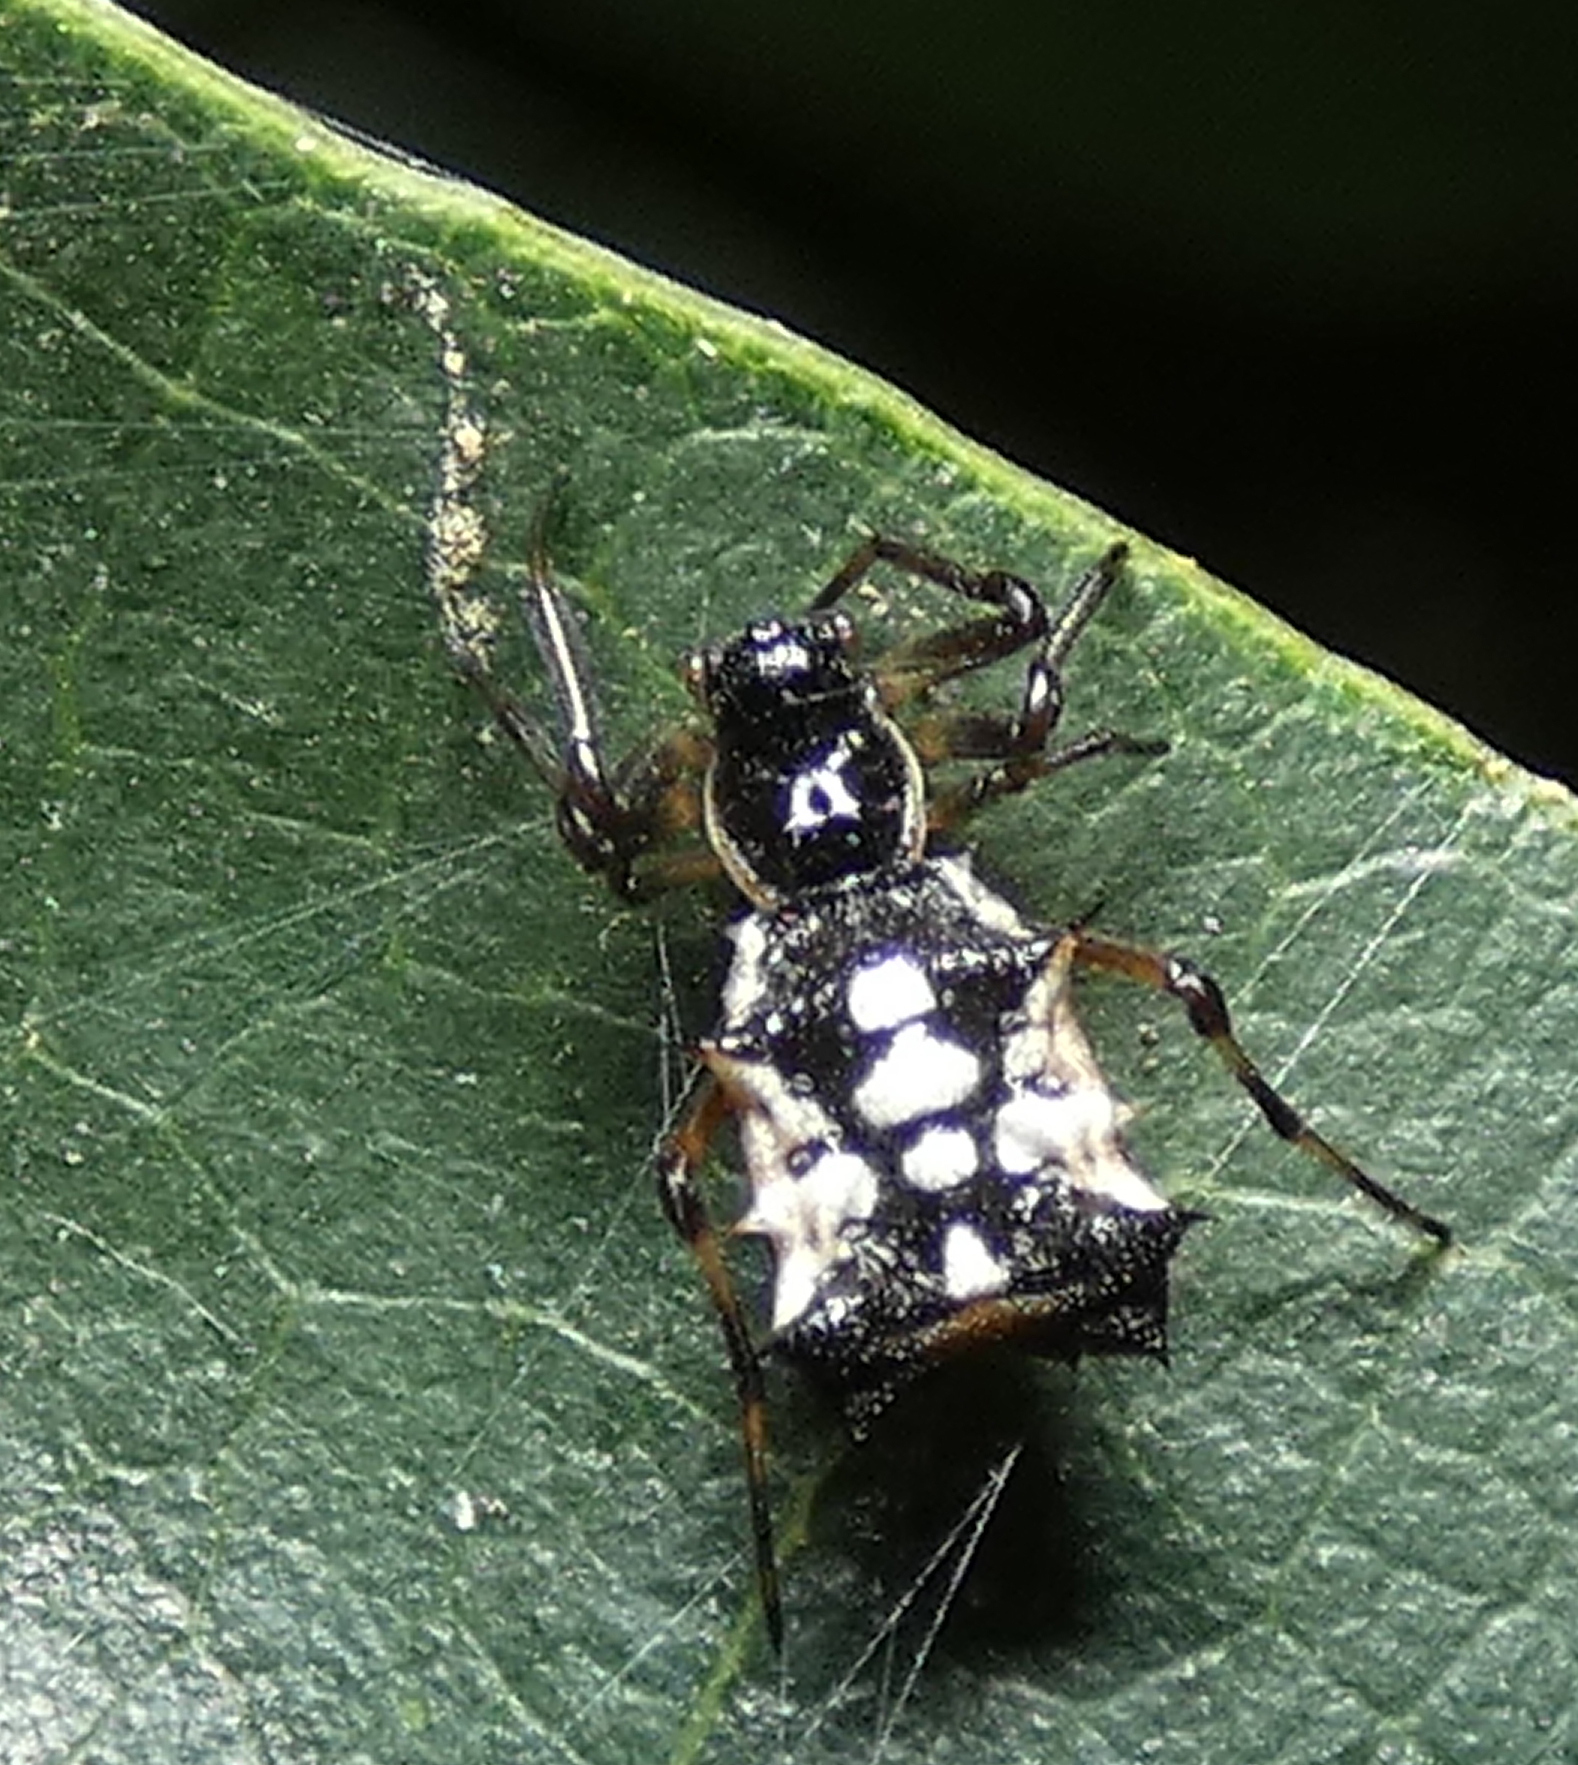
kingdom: Animalia
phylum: Arthropoda
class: Arachnida
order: Araneae
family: Araneidae
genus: Micrathena
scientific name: Micrathena picta
